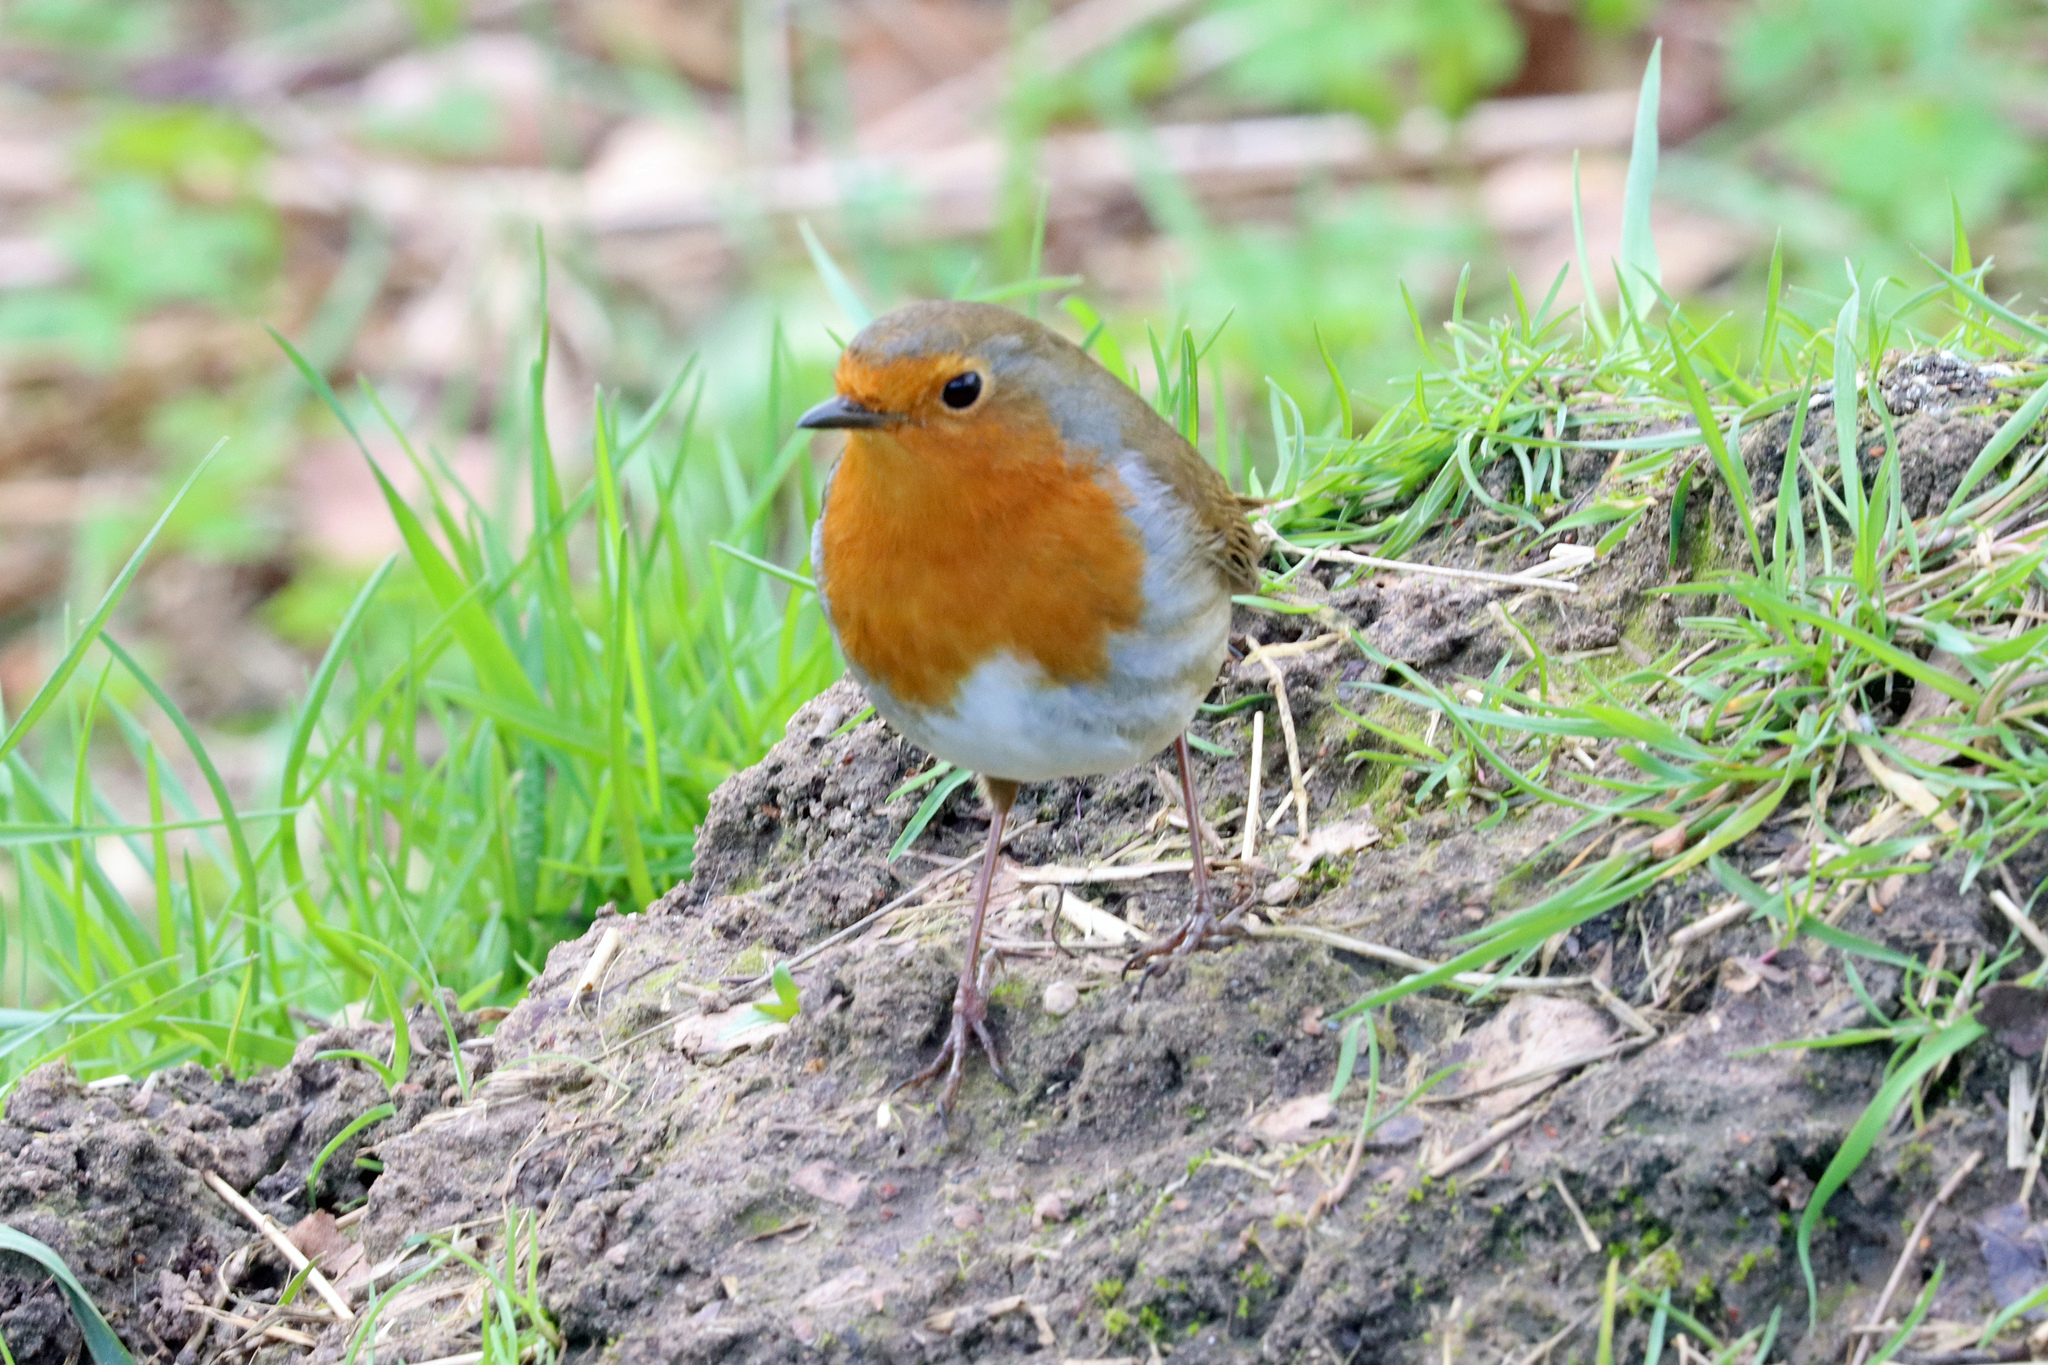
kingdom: Animalia
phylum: Chordata
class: Aves
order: Passeriformes
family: Muscicapidae
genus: Erithacus
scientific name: Erithacus rubecula
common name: European robin
